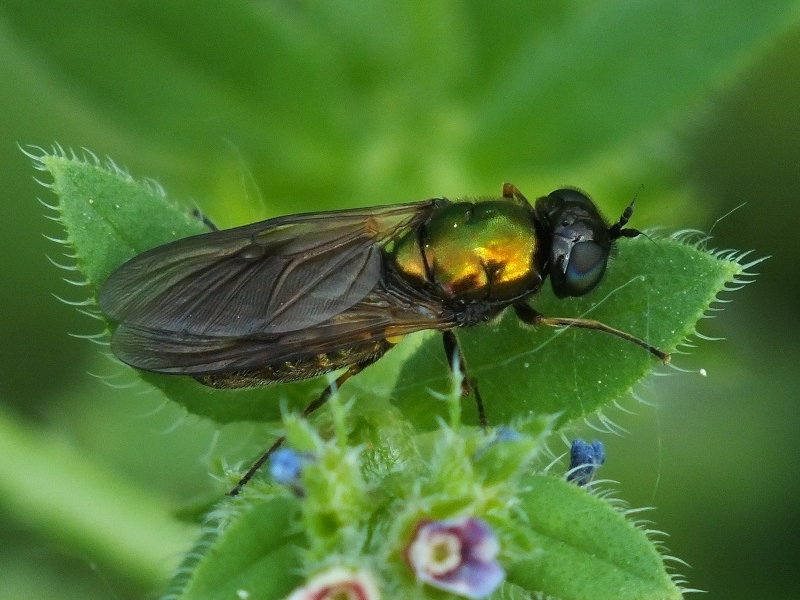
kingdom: Animalia
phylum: Arthropoda
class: Insecta
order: Diptera
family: Stratiomyidae
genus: Chloromyia
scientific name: Chloromyia formosa
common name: Soldier fly
